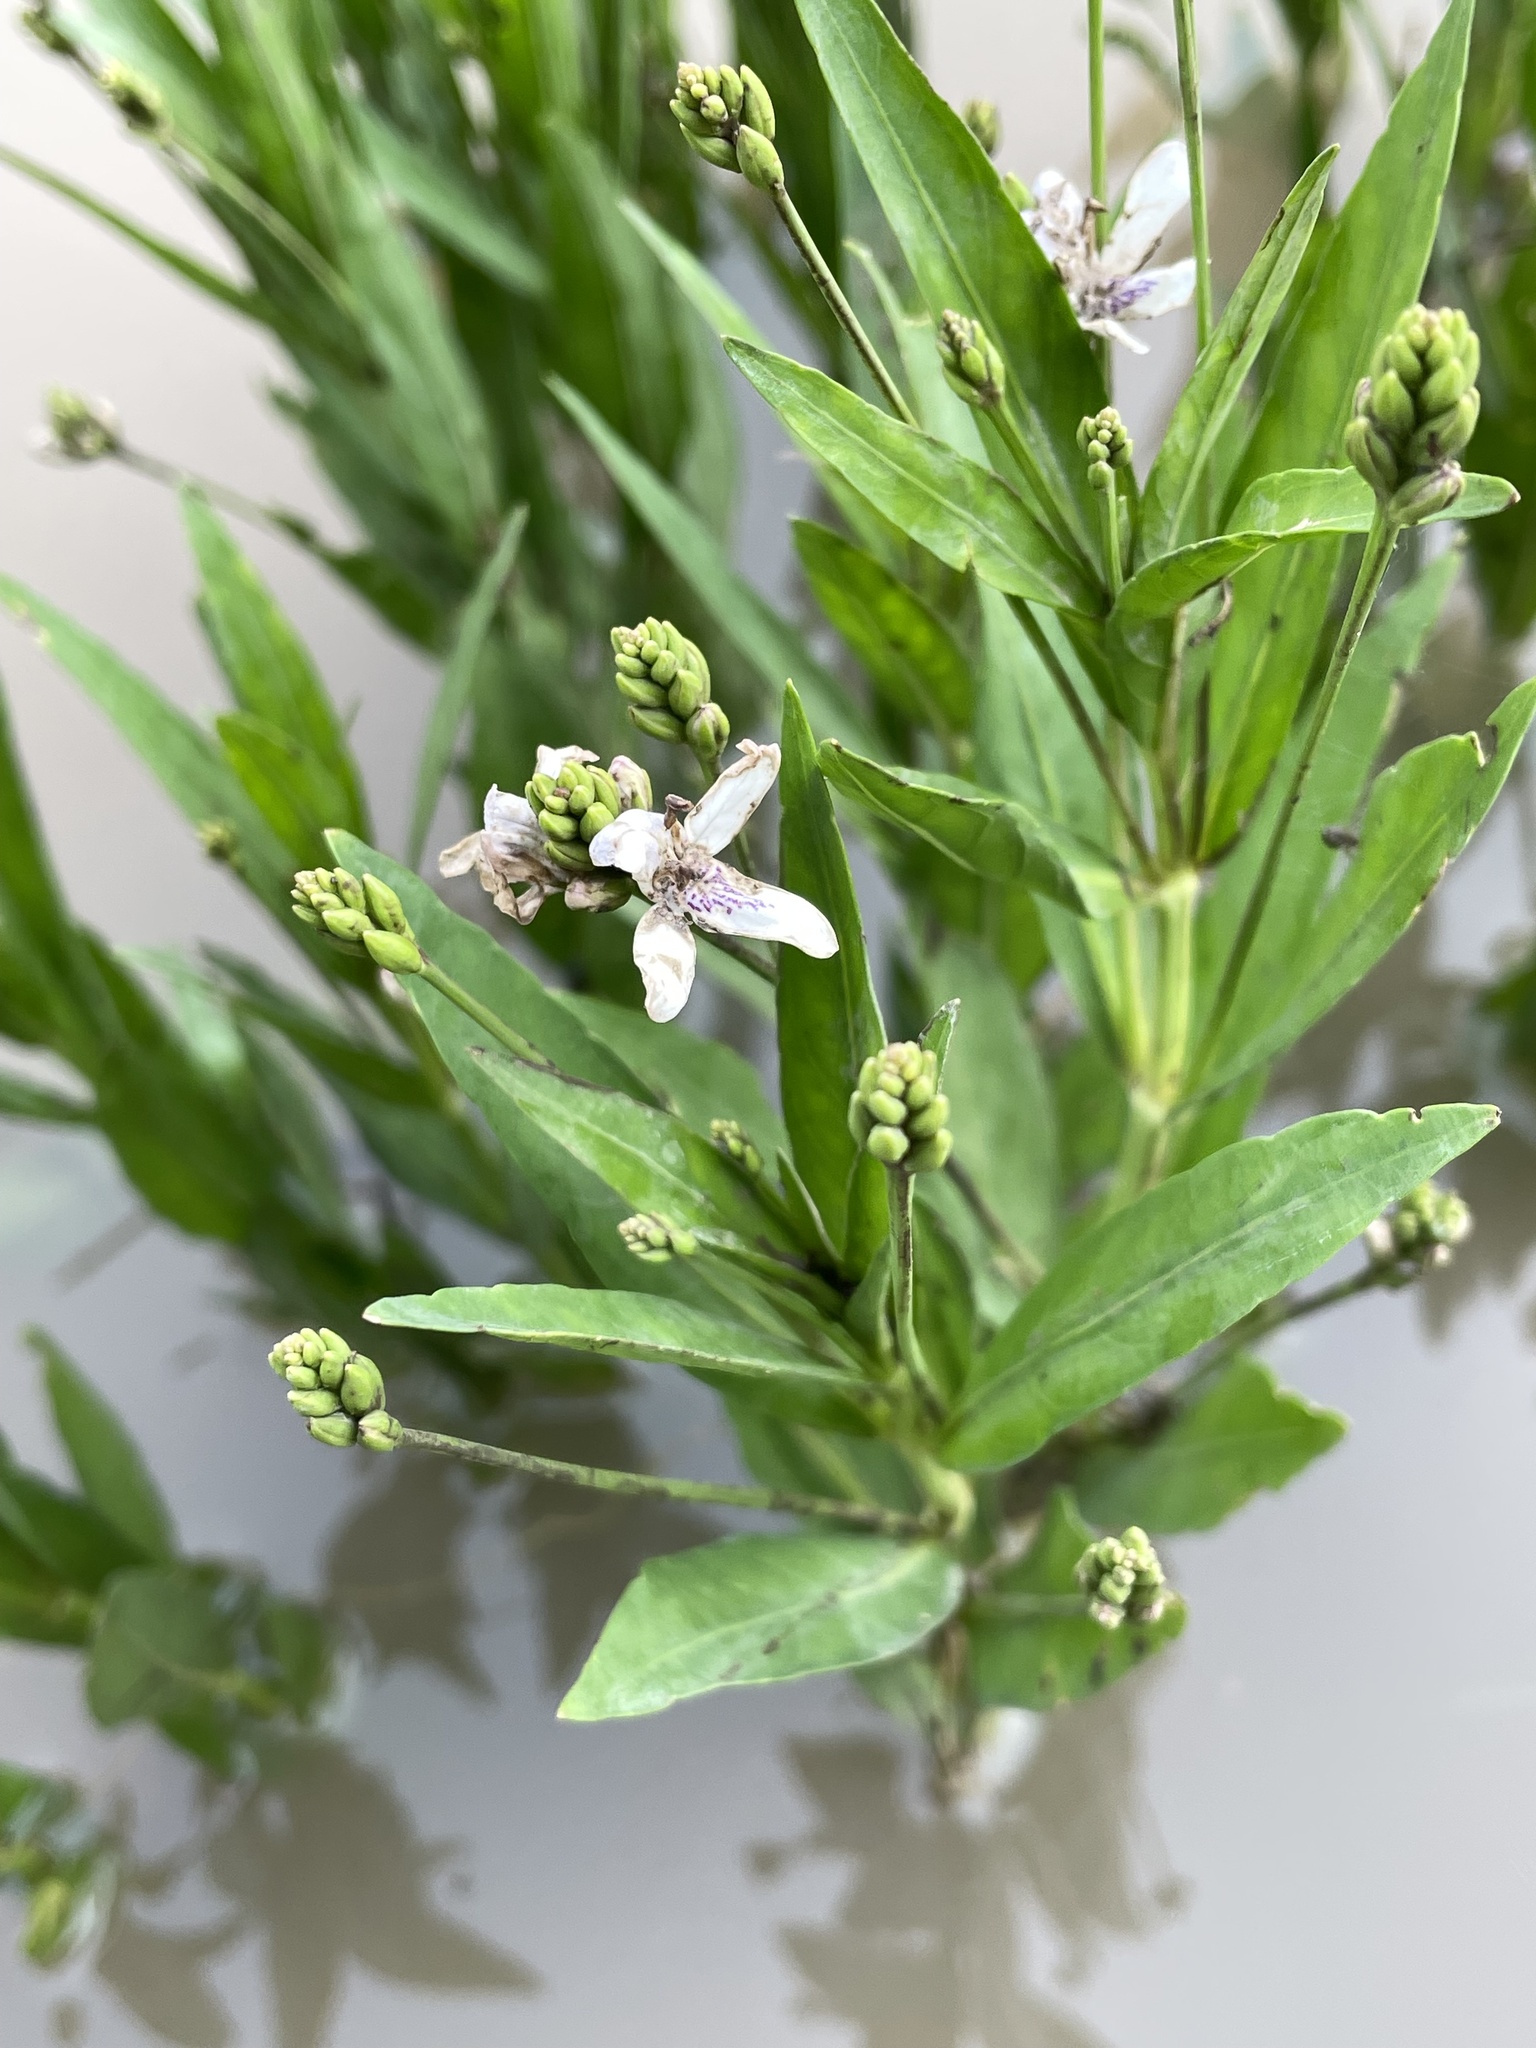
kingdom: Plantae
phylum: Tracheophyta
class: Magnoliopsida
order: Lamiales
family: Acanthaceae
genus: Dianthera
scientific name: Dianthera americana
